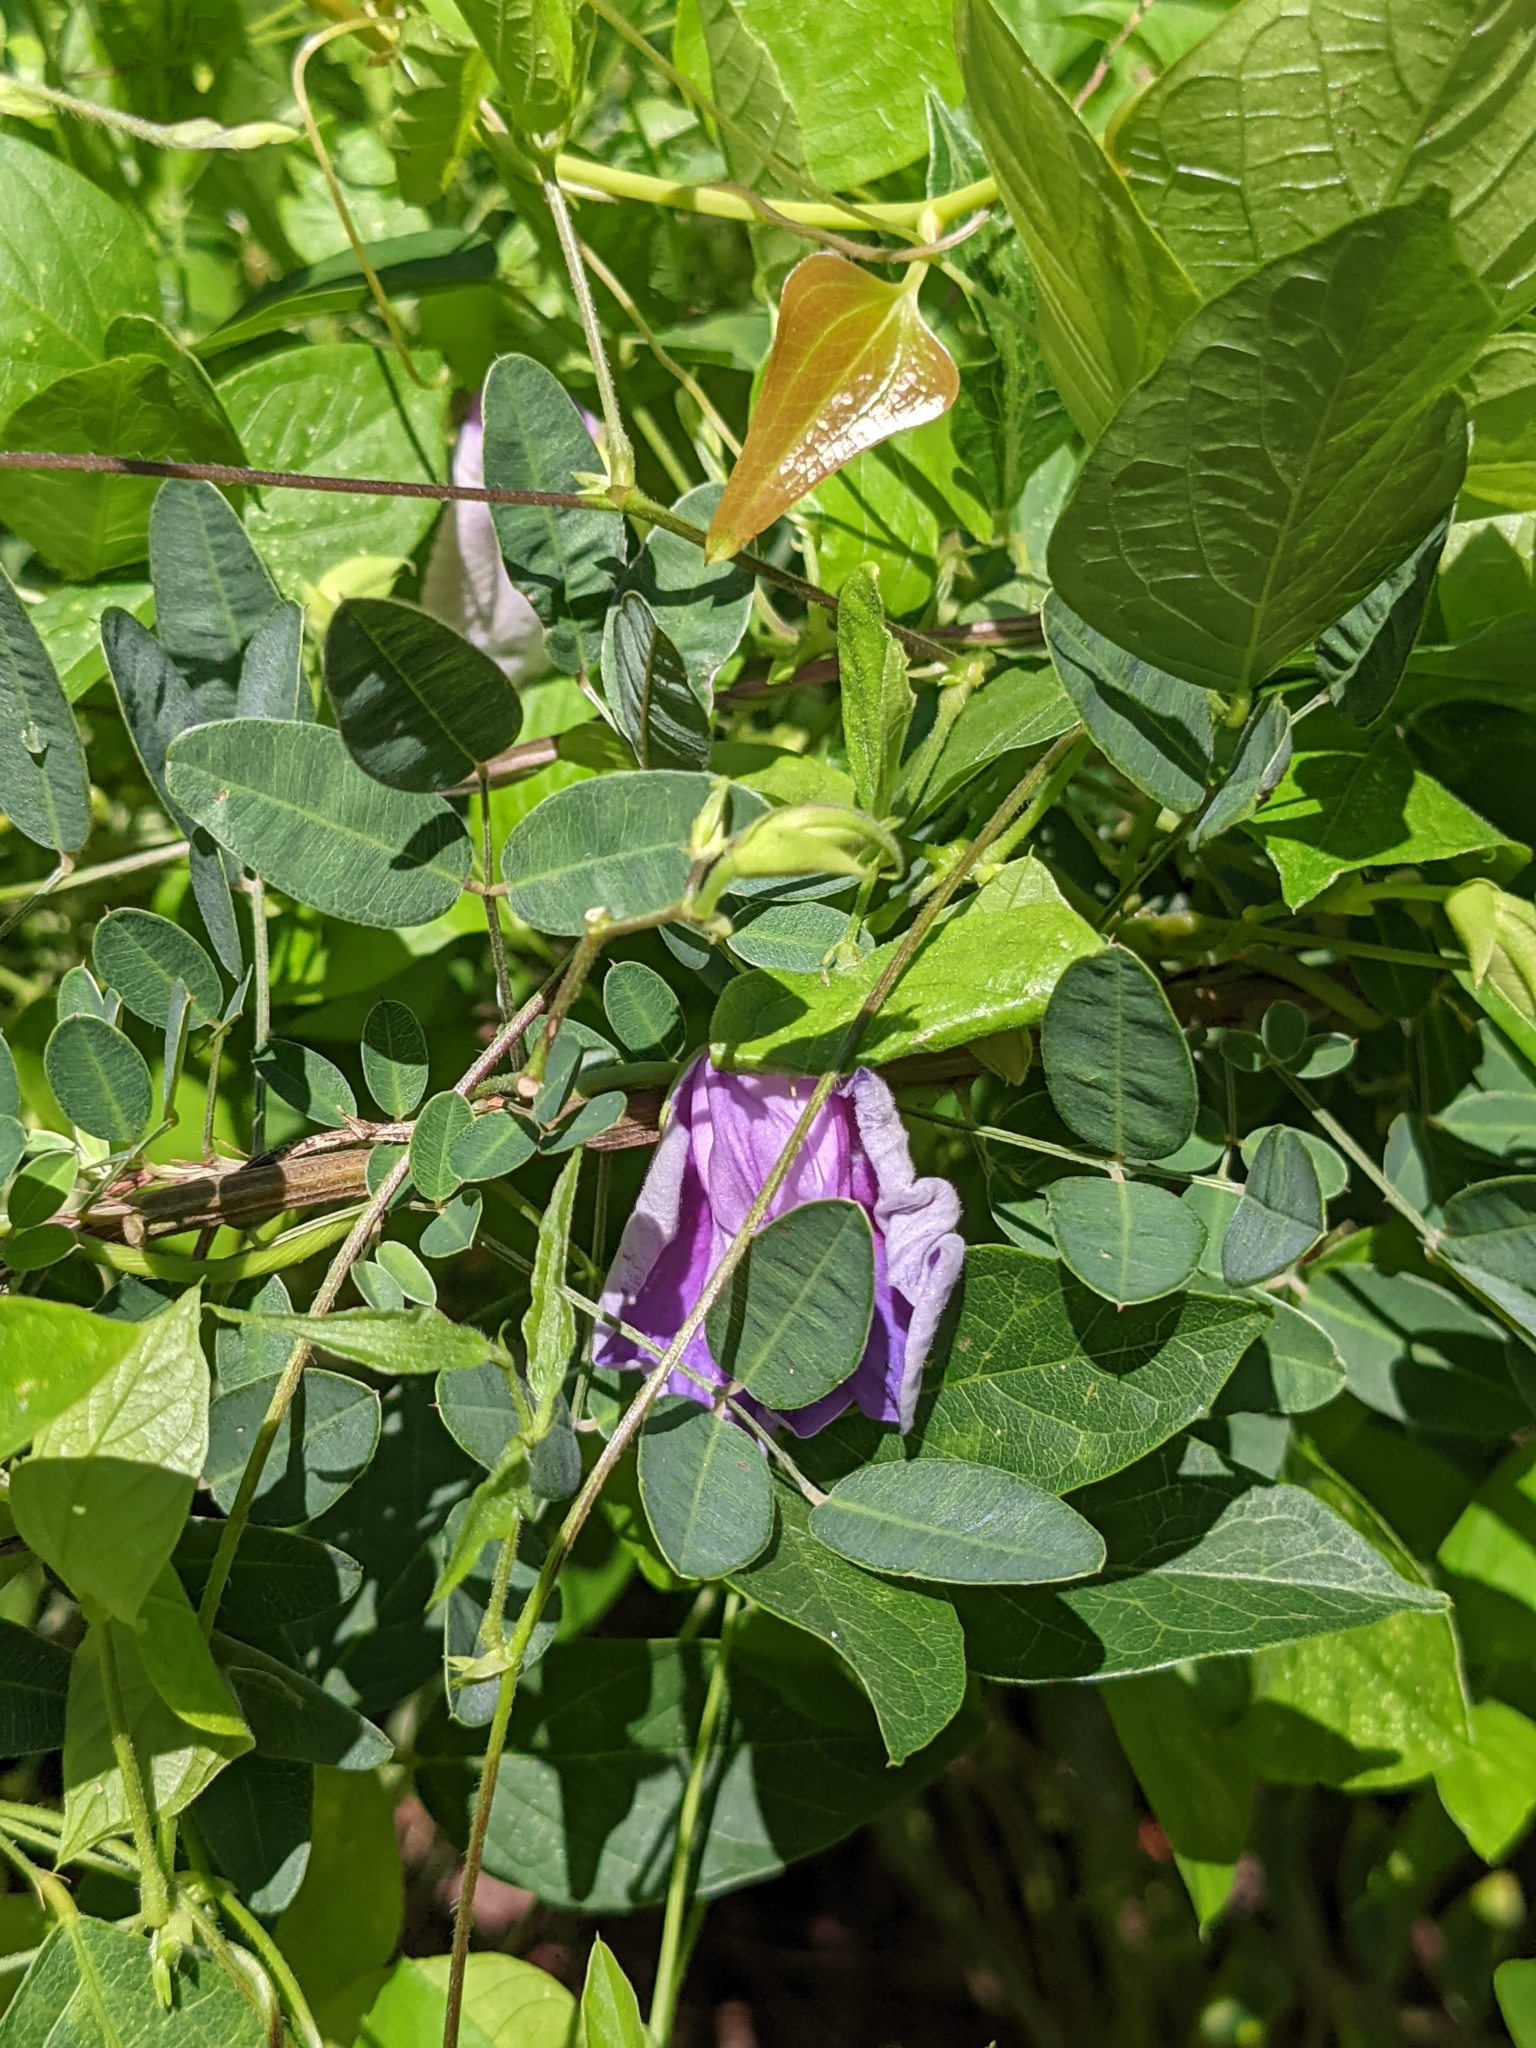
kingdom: Plantae
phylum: Tracheophyta
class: Magnoliopsida
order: Fabales
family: Fabaceae
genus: Centrosema
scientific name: Centrosema virginianum
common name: Butterfly-pea
